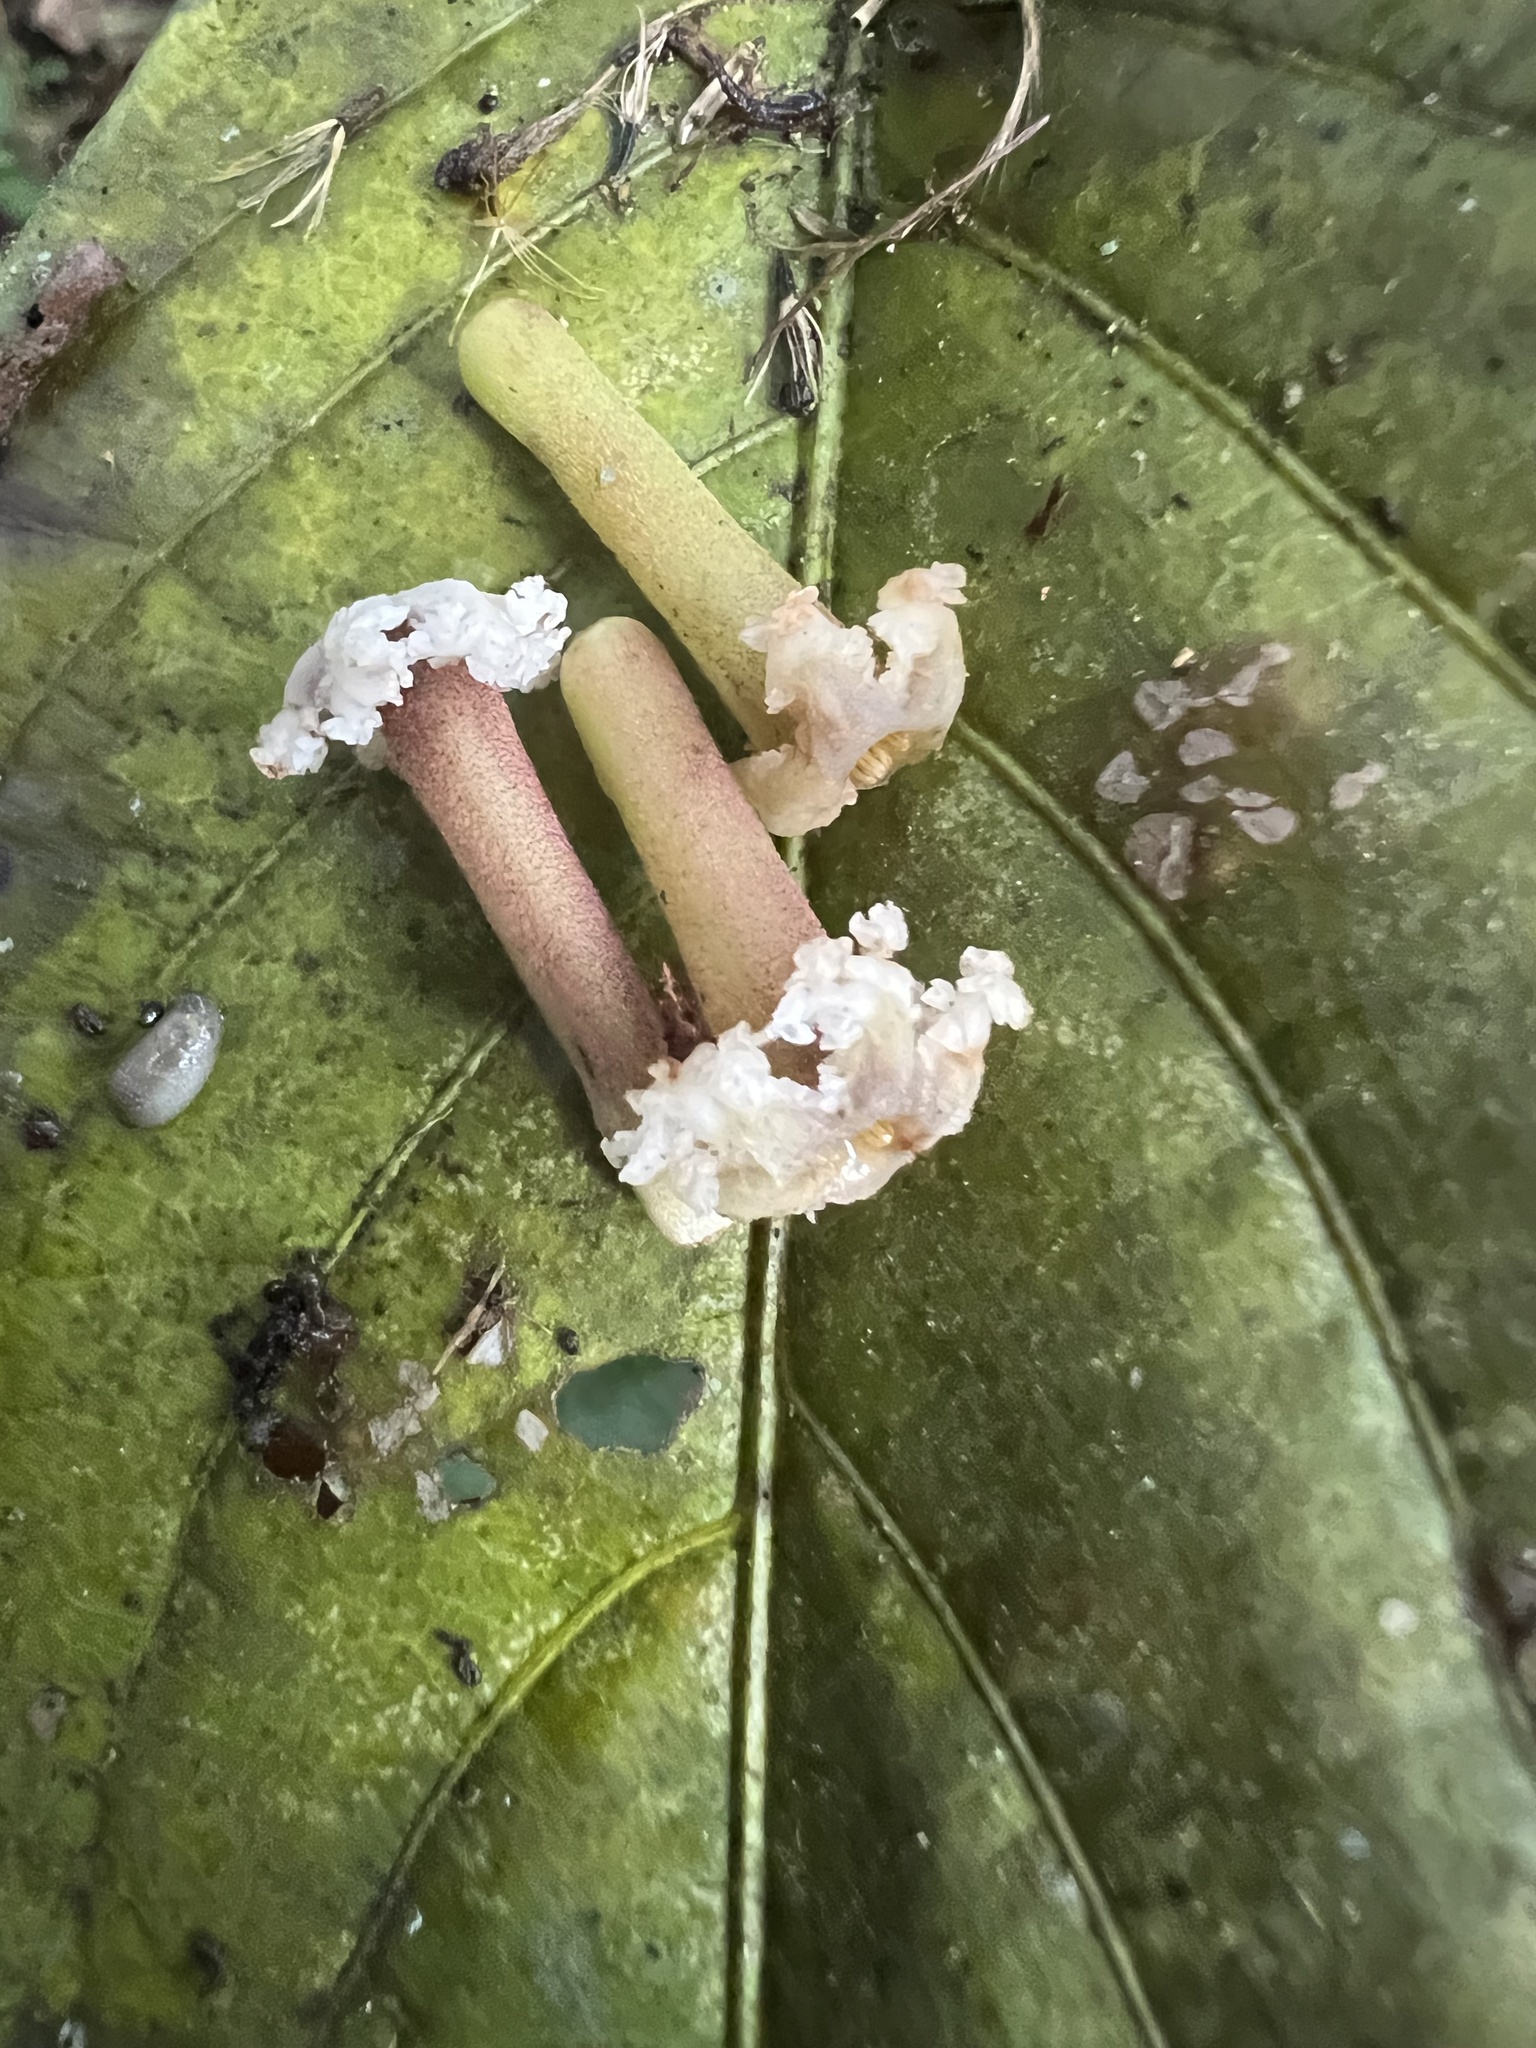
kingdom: Plantae
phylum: Tracheophyta
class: Magnoliopsida
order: Gentianales
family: Rubiaceae
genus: Guettarda
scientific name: Guettarda dependens
